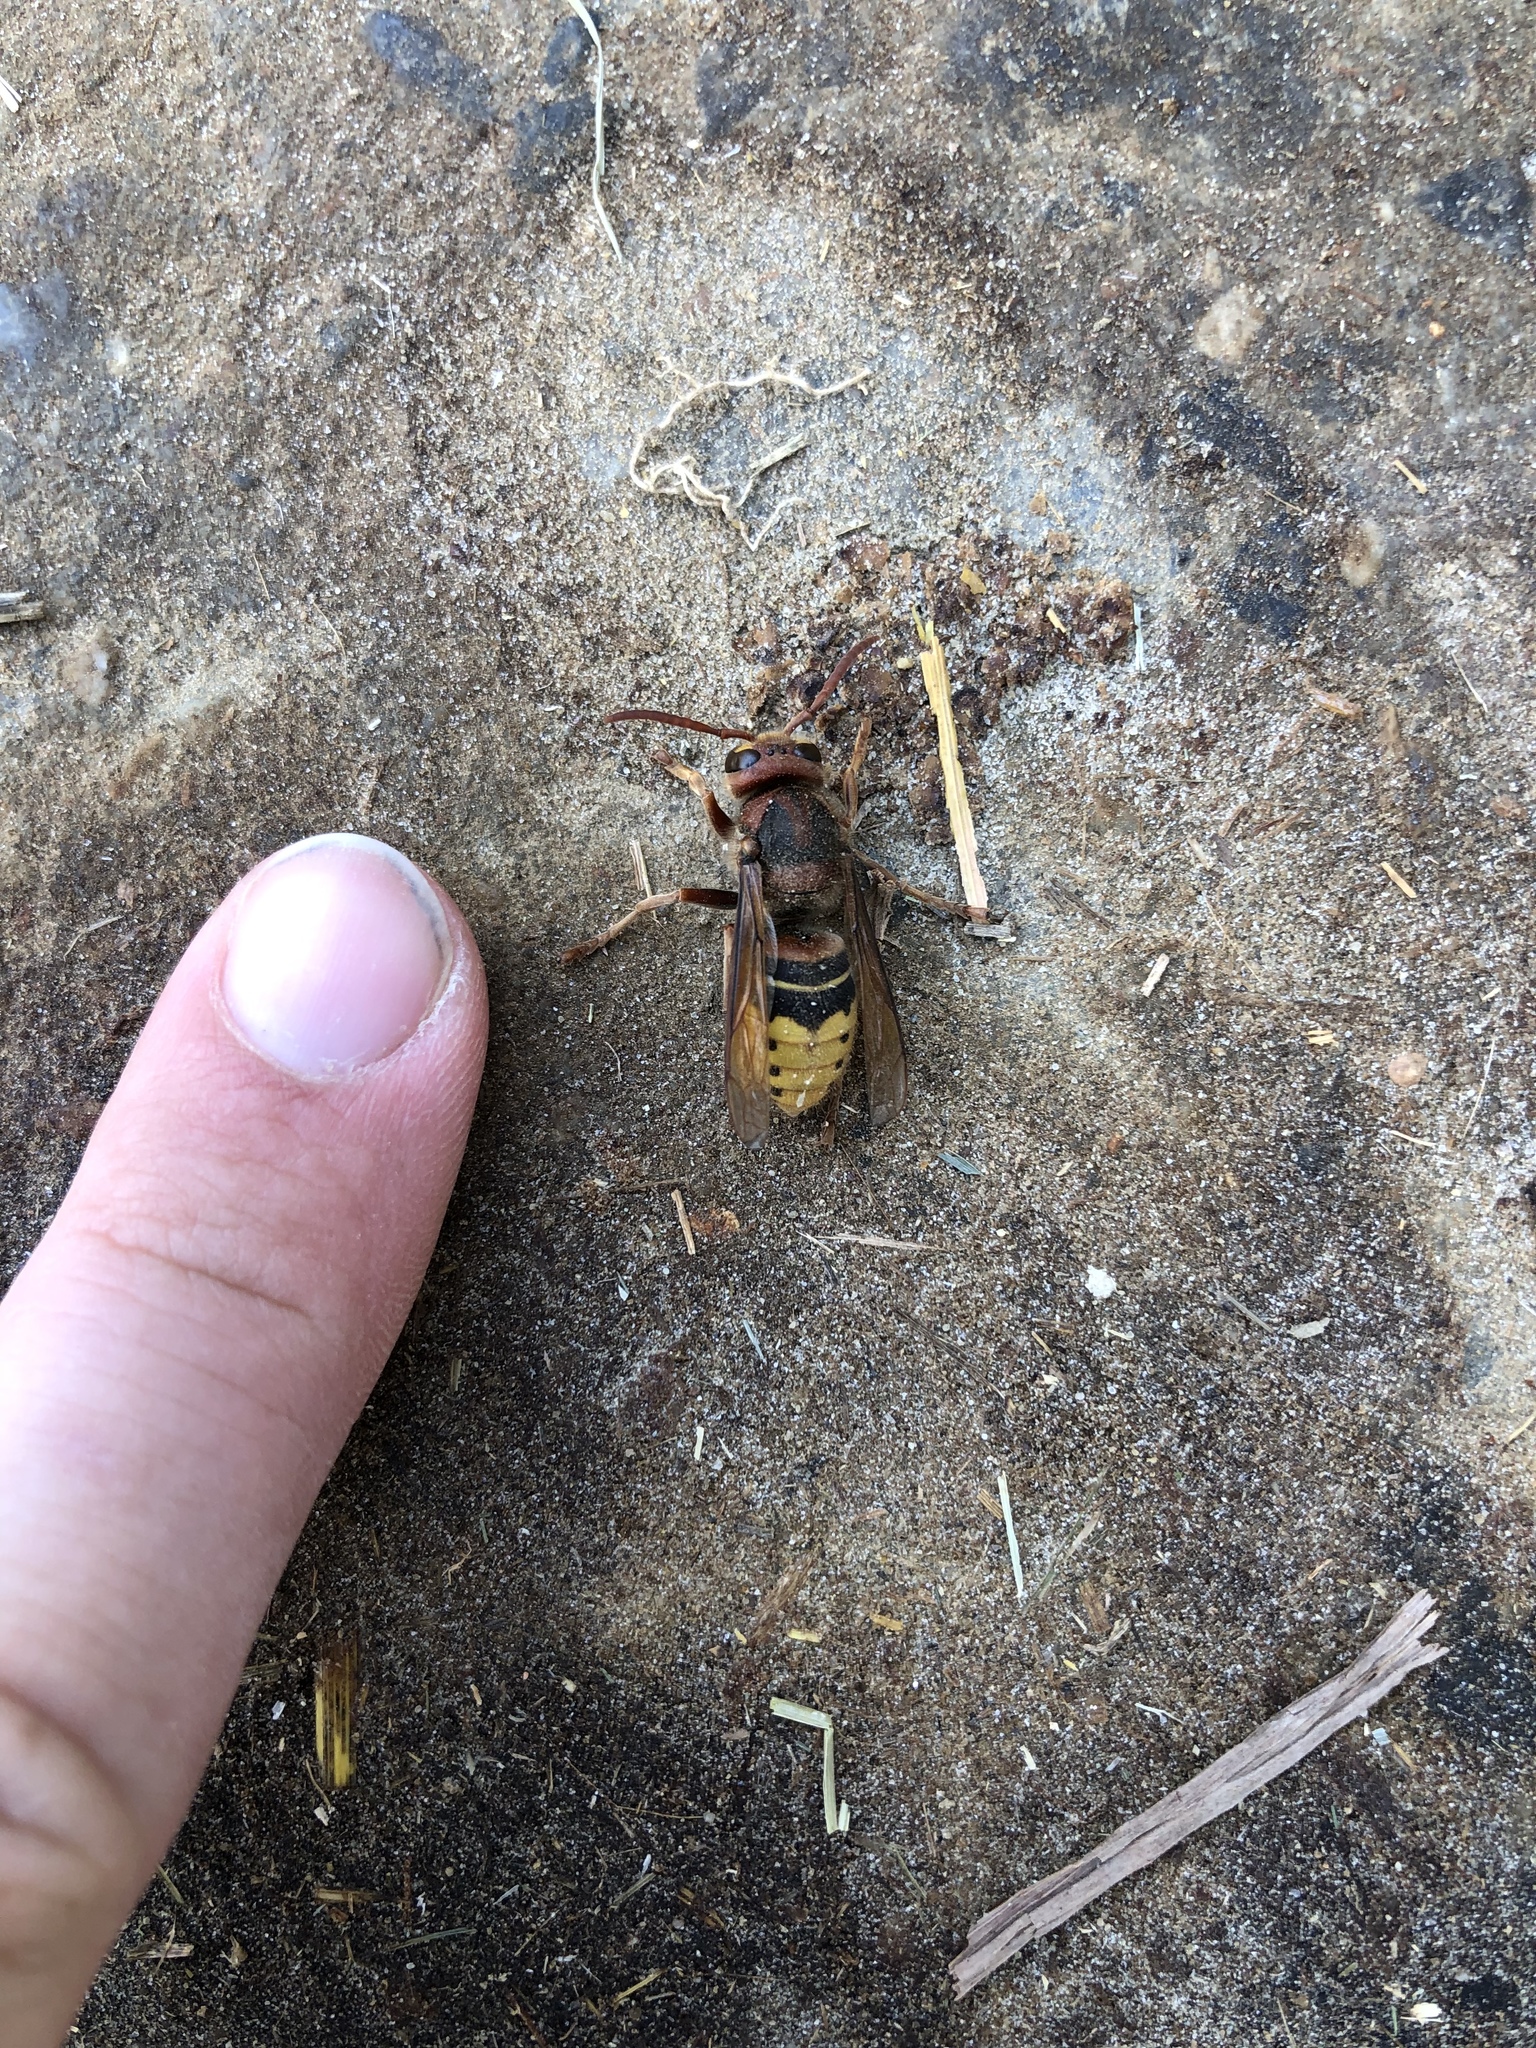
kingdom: Animalia
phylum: Arthropoda
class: Insecta
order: Hymenoptera
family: Vespidae
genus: Vespa
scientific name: Vespa crabro
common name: Hornet
